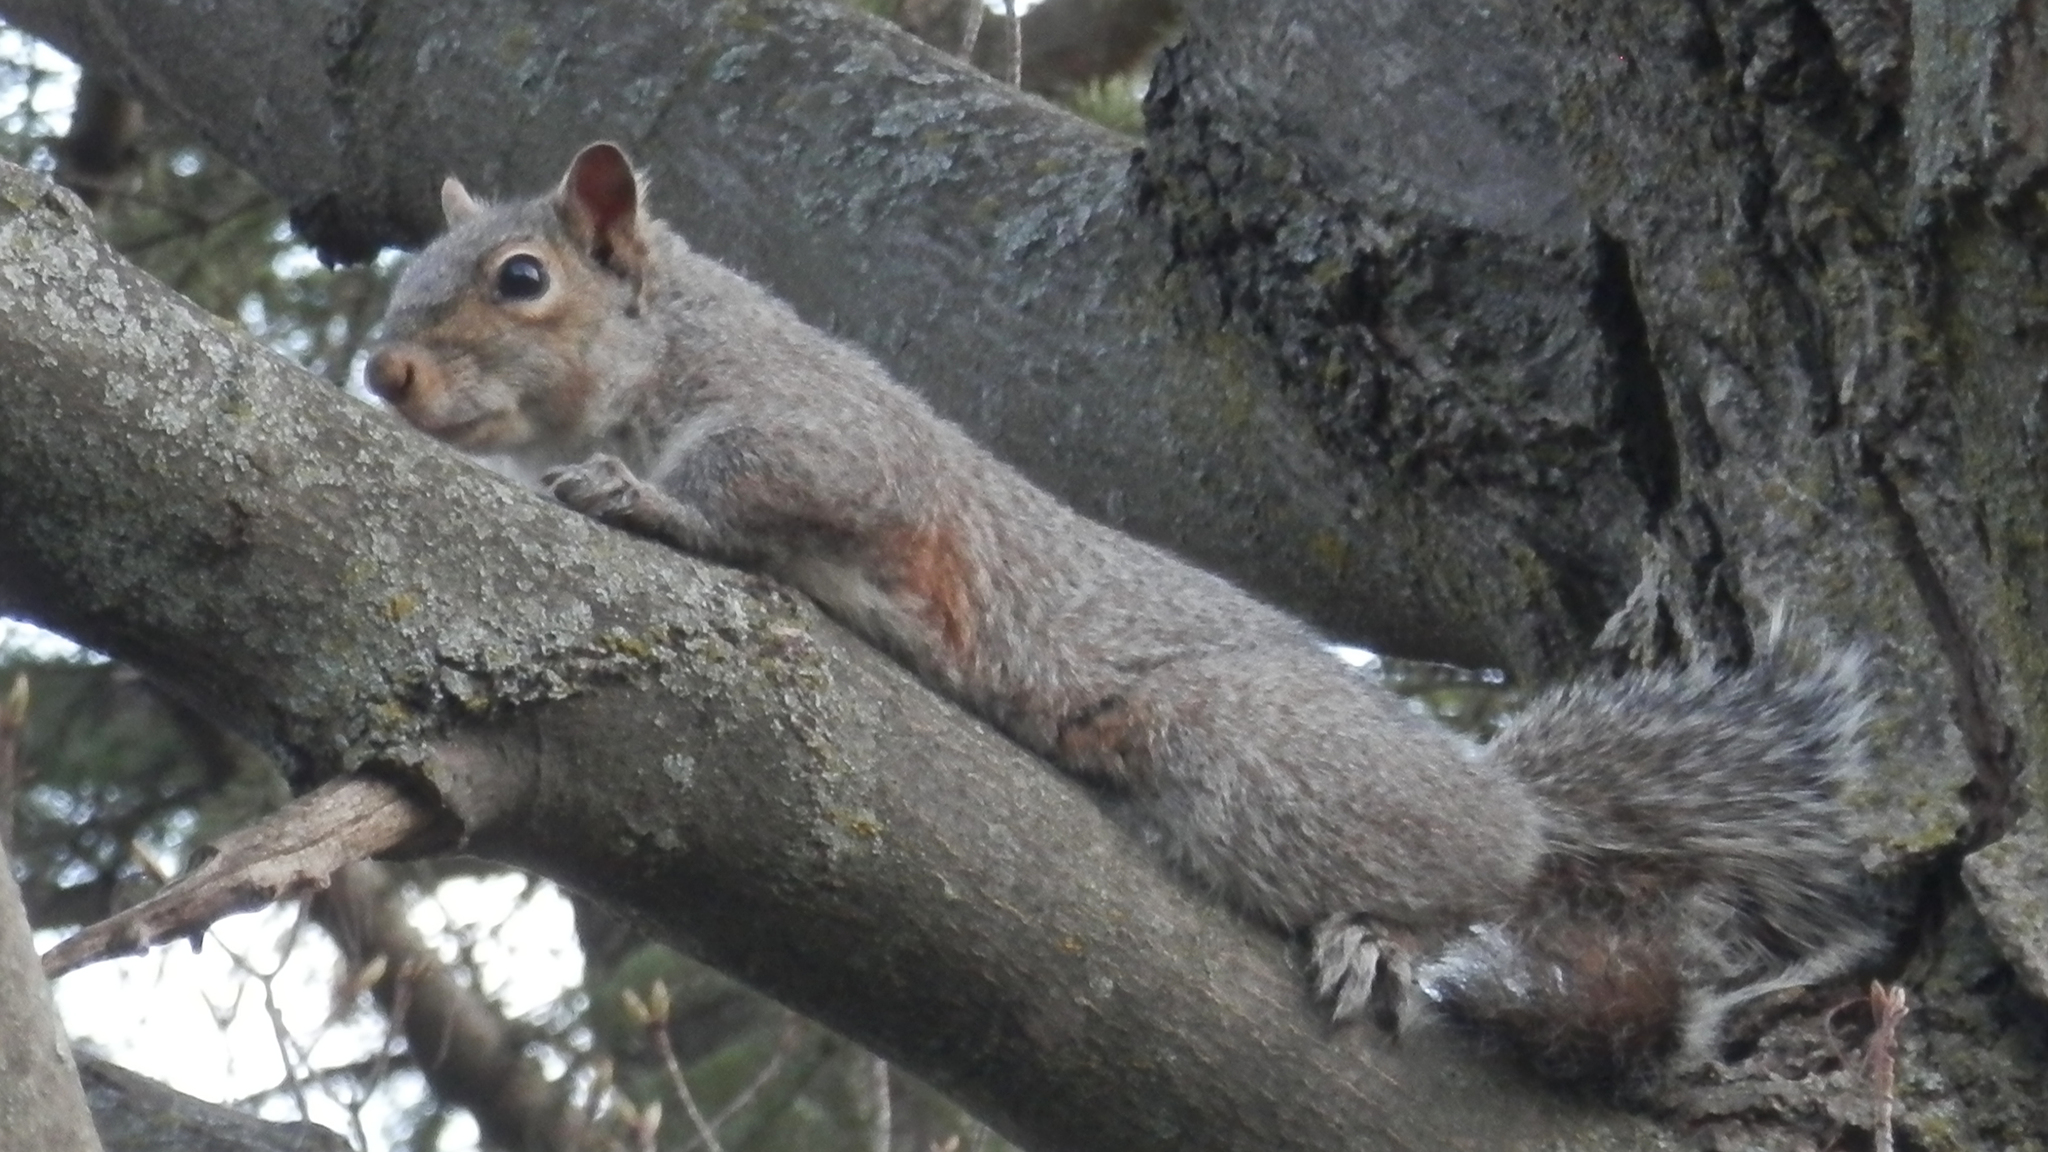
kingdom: Animalia
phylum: Chordata
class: Mammalia
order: Rodentia
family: Sciuridae
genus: Sciurus
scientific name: Sciurus carolinensis
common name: Eastern gray squirrel
